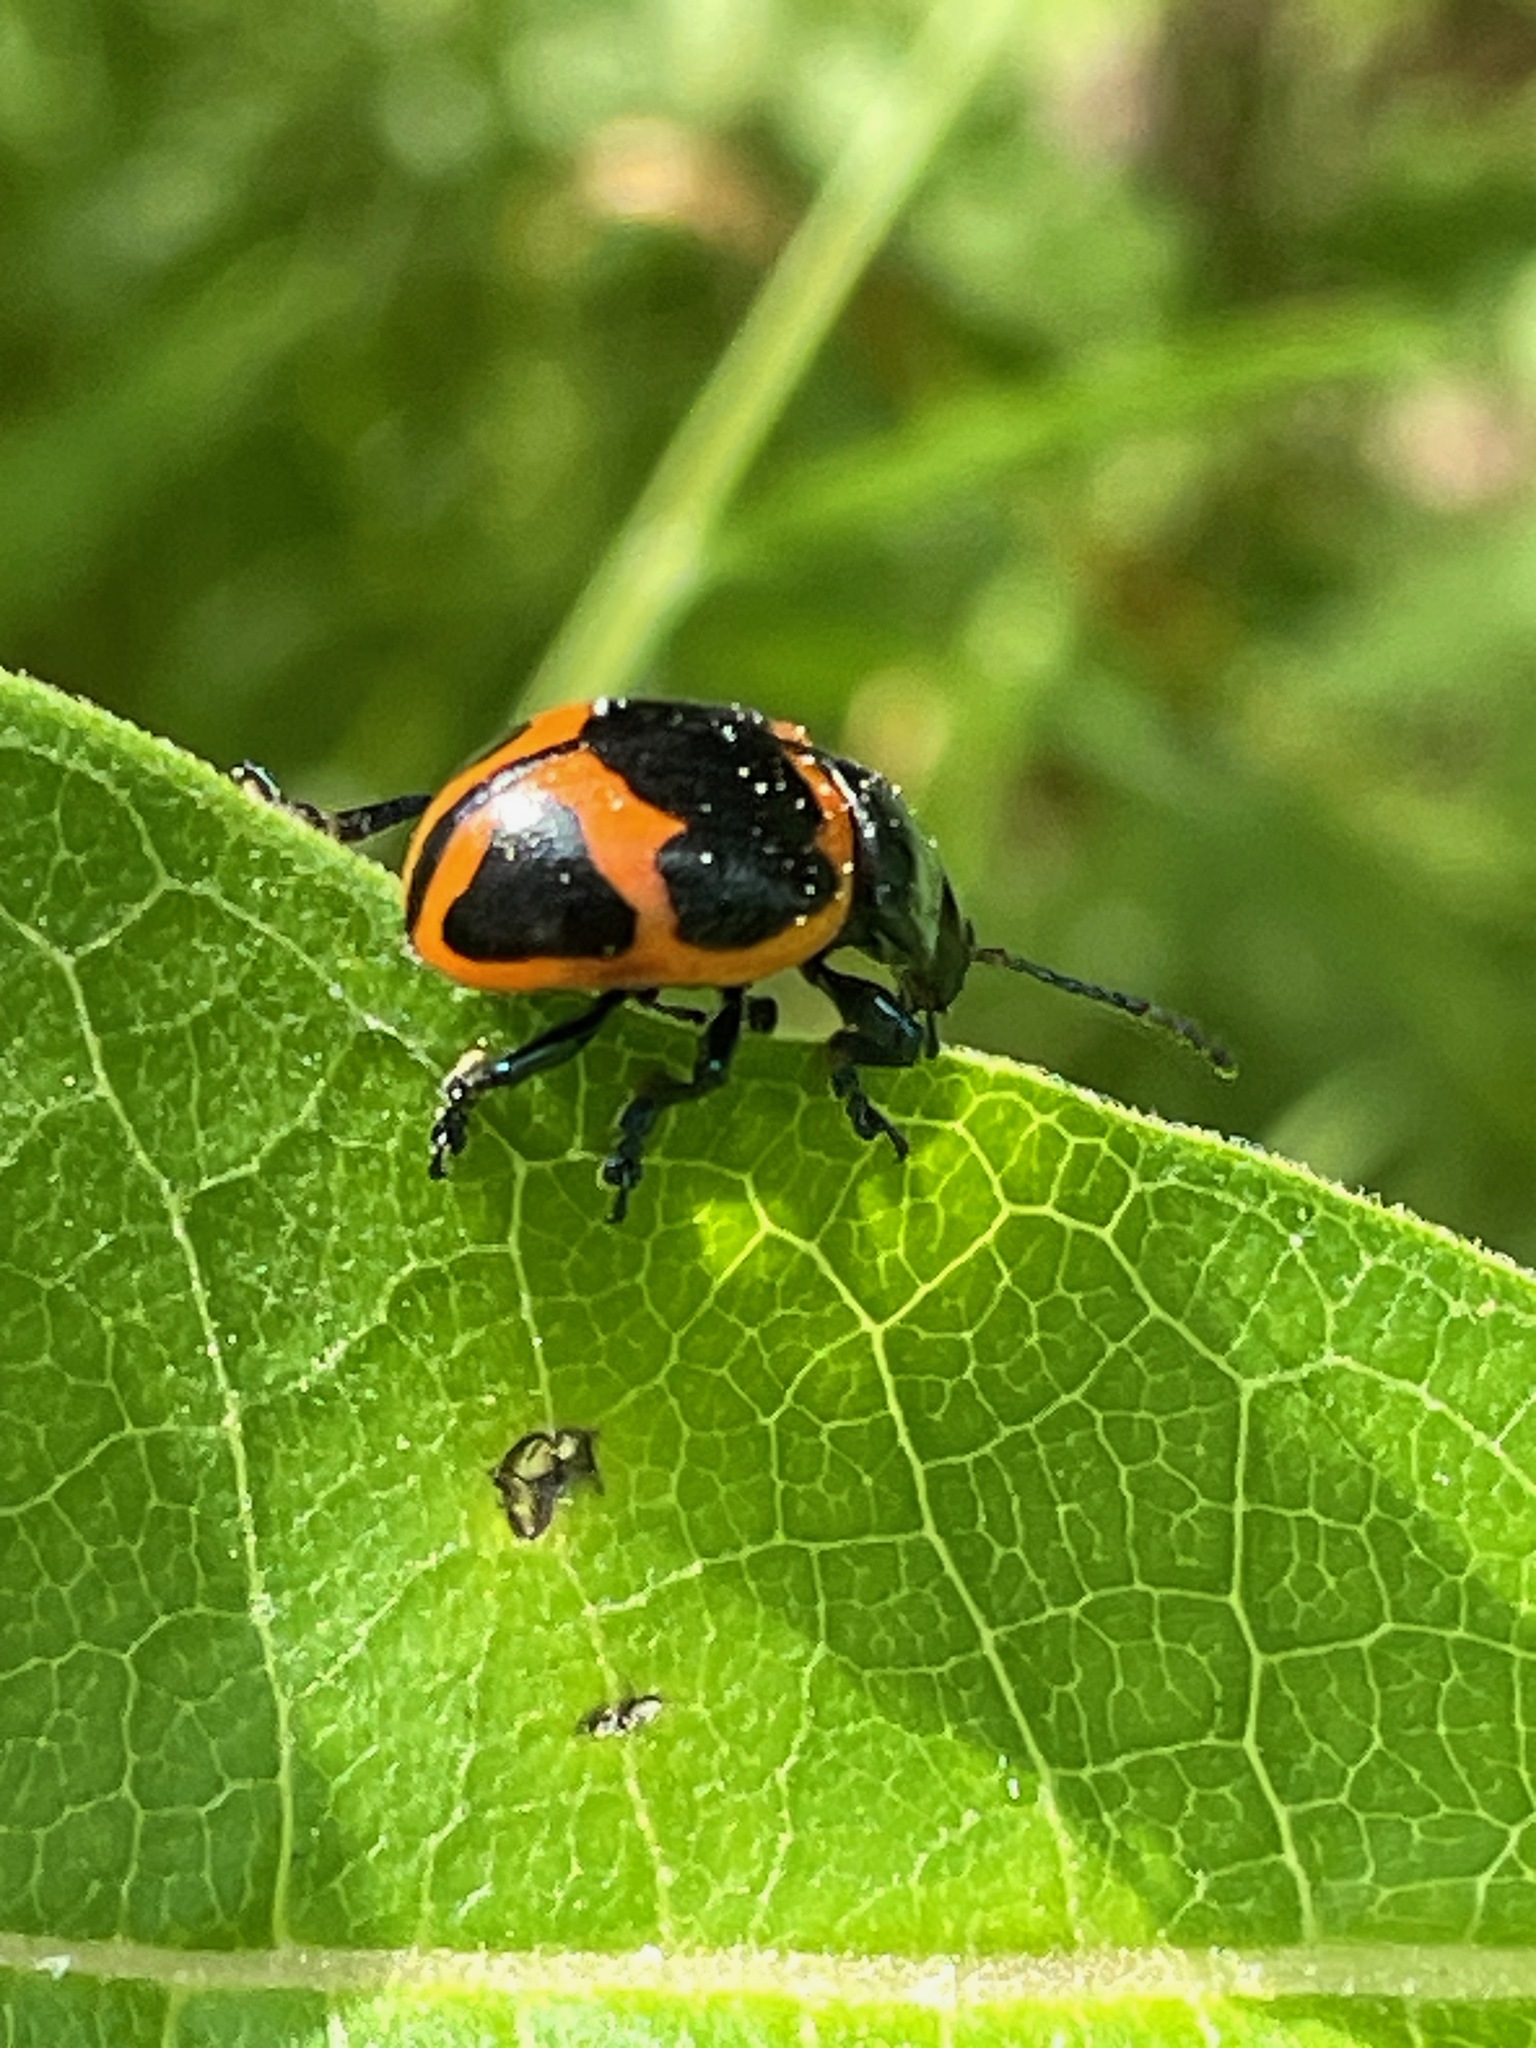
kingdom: Animalia
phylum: Arthropoda
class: Insecta
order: Coleoptera
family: Chrysomelidae
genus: Labidomera
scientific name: Labidomera clivicollis
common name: Swamp milkweed leaf beetle
